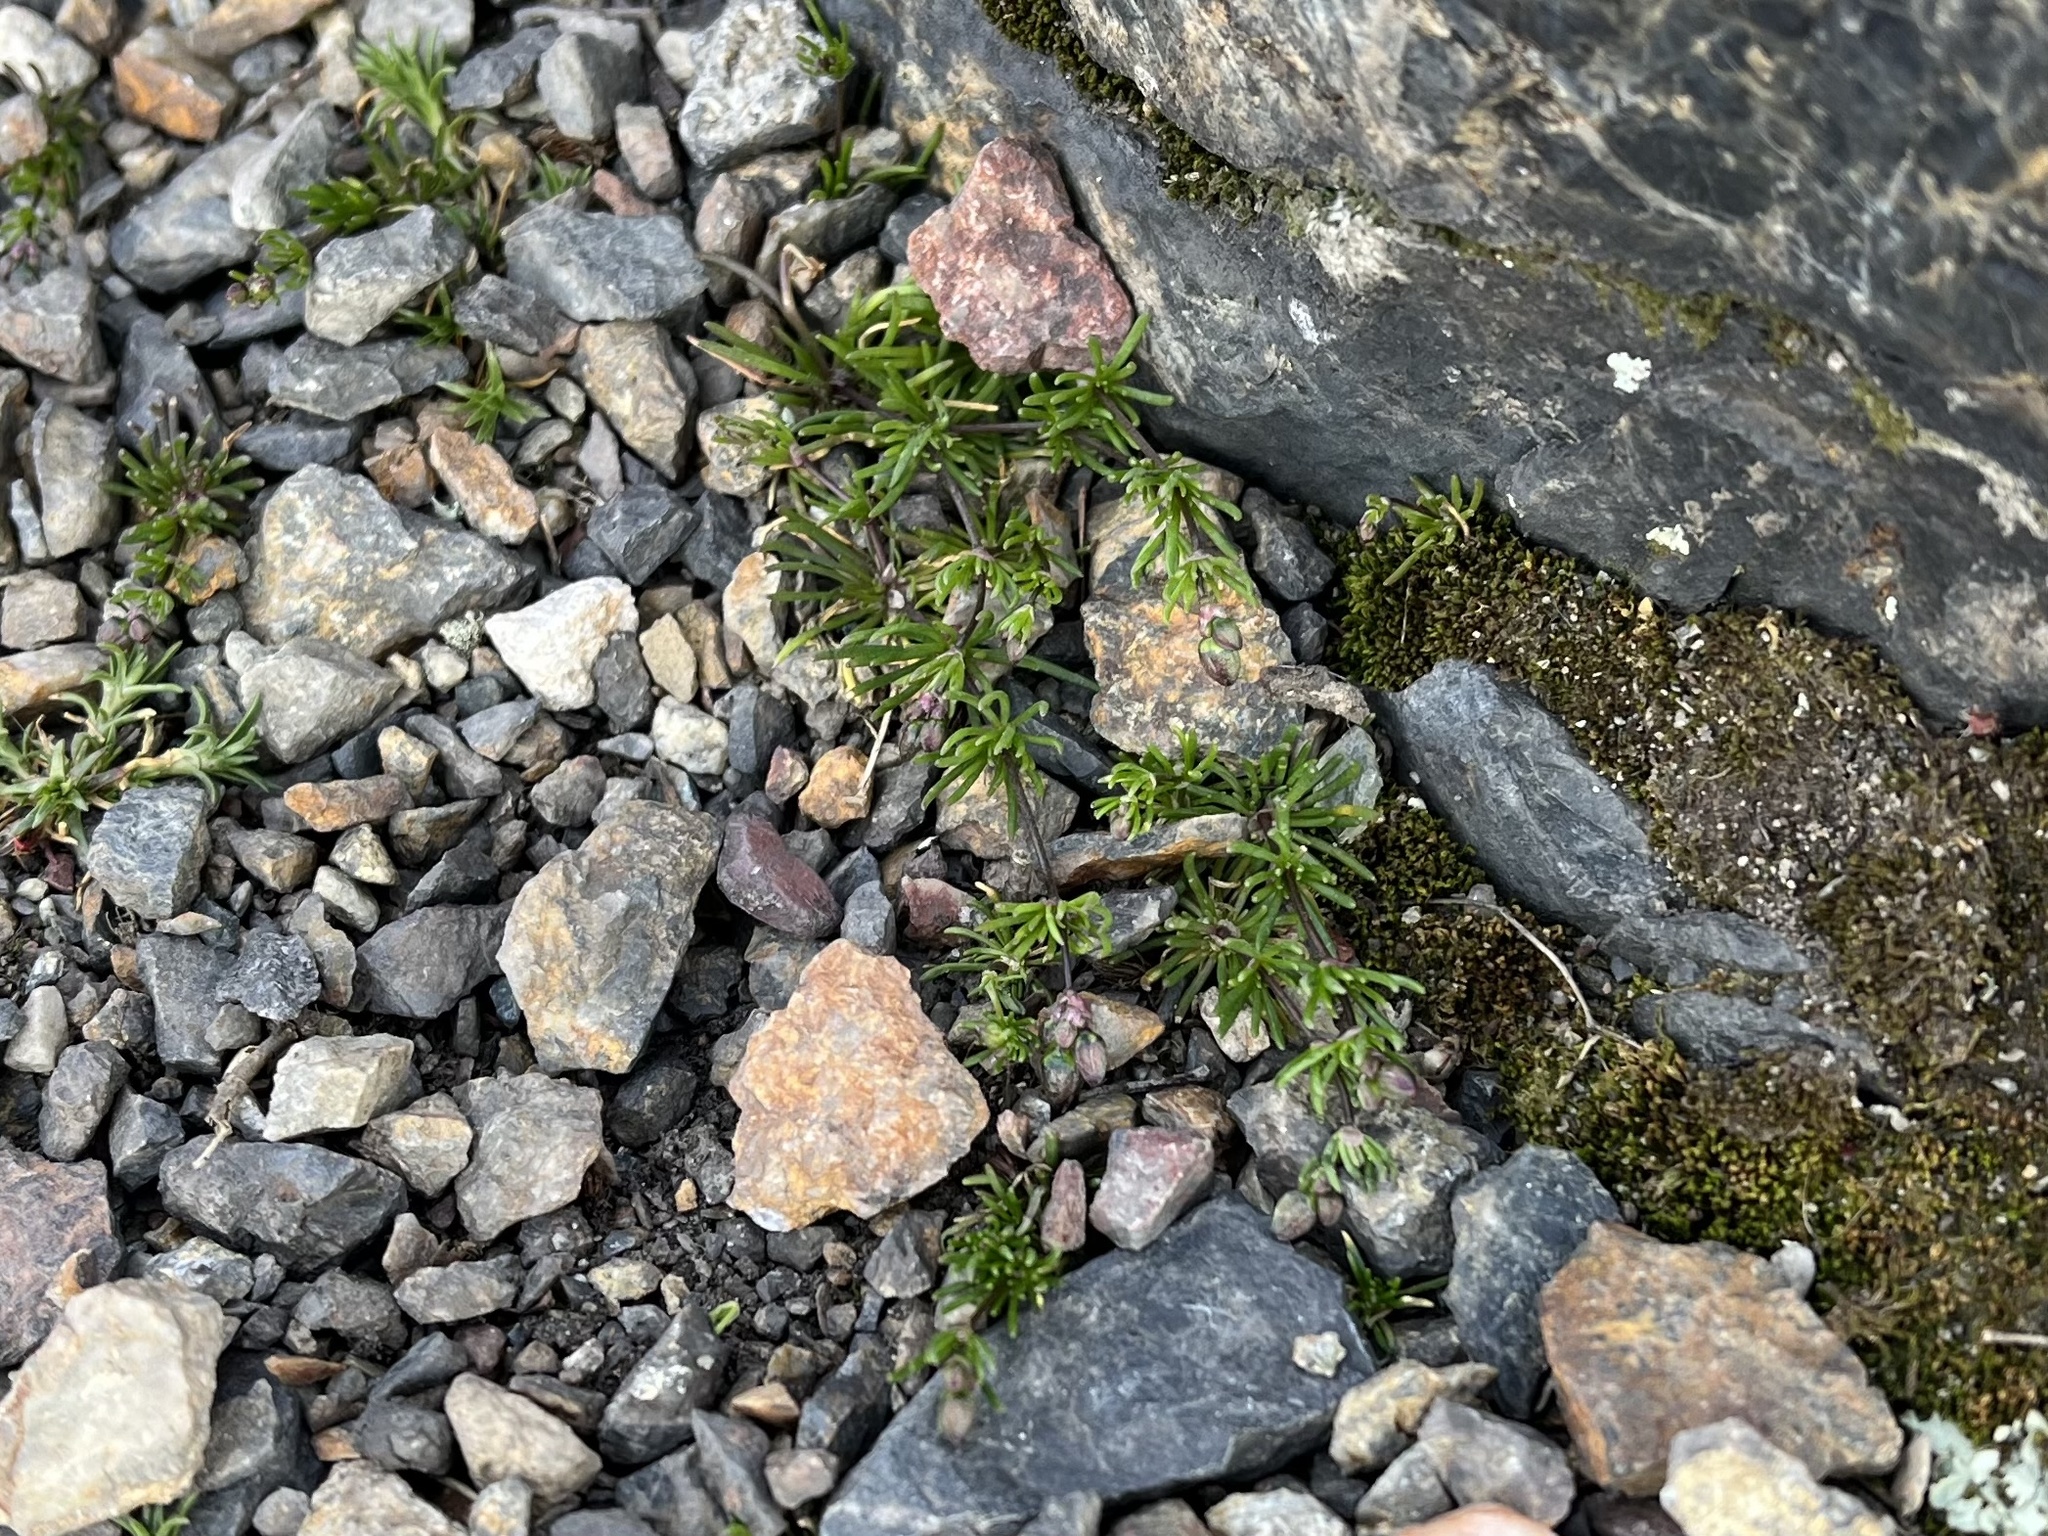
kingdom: Plantae
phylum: Tracheophyta
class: Magnoliopsida
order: Caryophyllales
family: Caryophyllaceae
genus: Spergula
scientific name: Spergula morisonii
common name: Pearlwort spurrey
